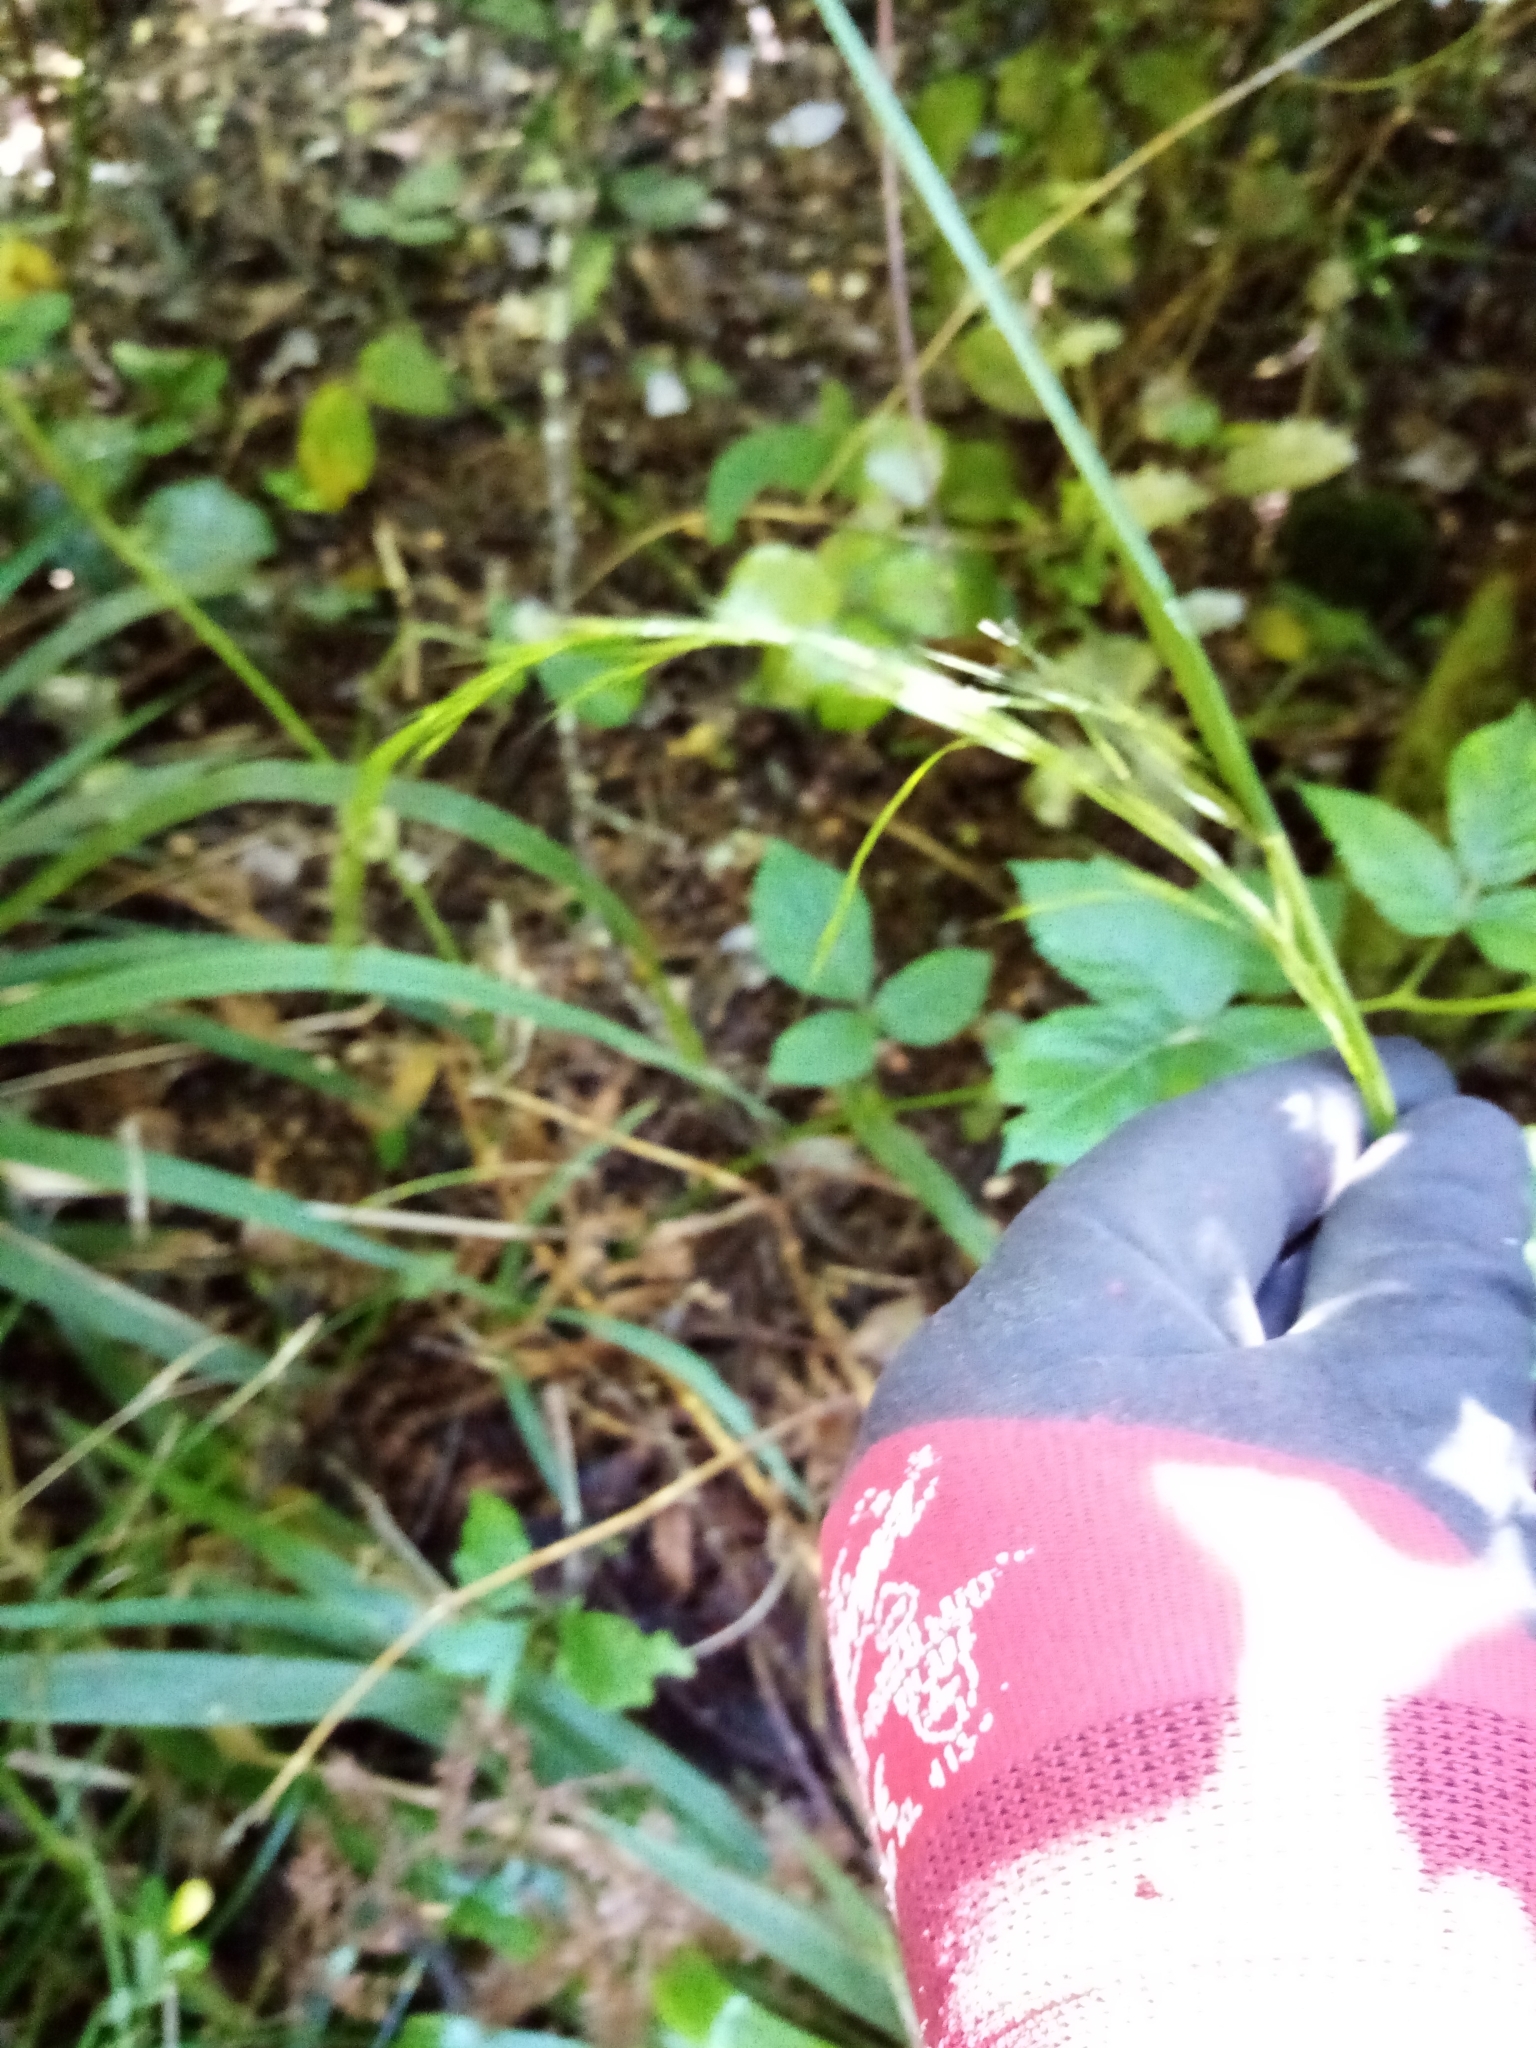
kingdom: Plantae
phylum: Tracheophyta
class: Liliopsida
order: Poales
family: Poaceae
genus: Ehrharta
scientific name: Ehrharta diplax
